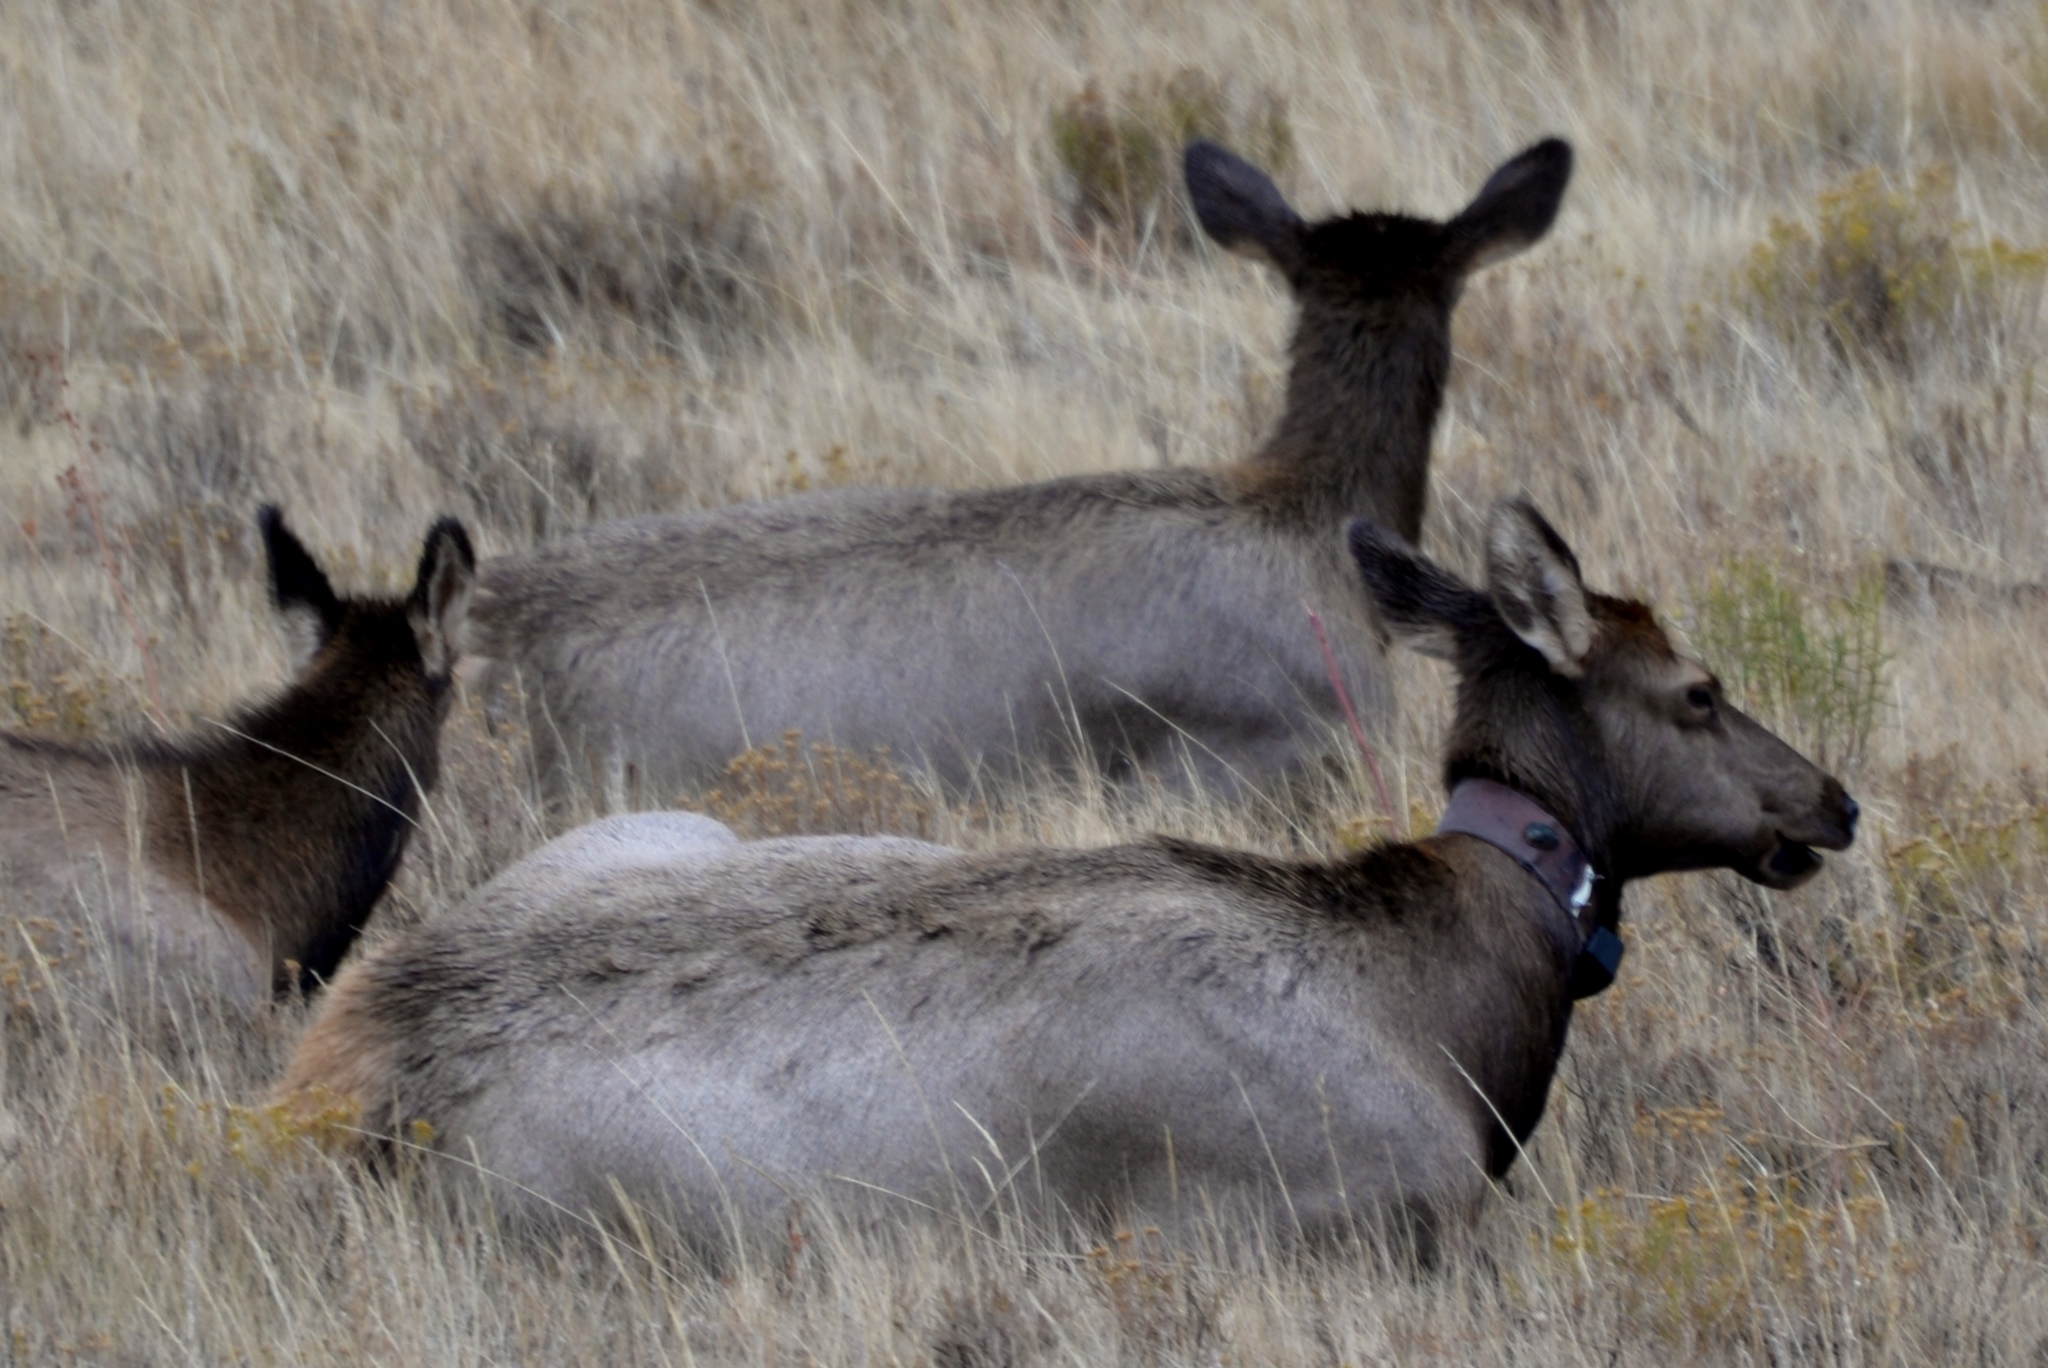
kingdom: Animalia
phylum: Chordata
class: Mammalia
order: Artiodactyla
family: Cervidae
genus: Cervus
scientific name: Cervus elaphus
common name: Red deer
